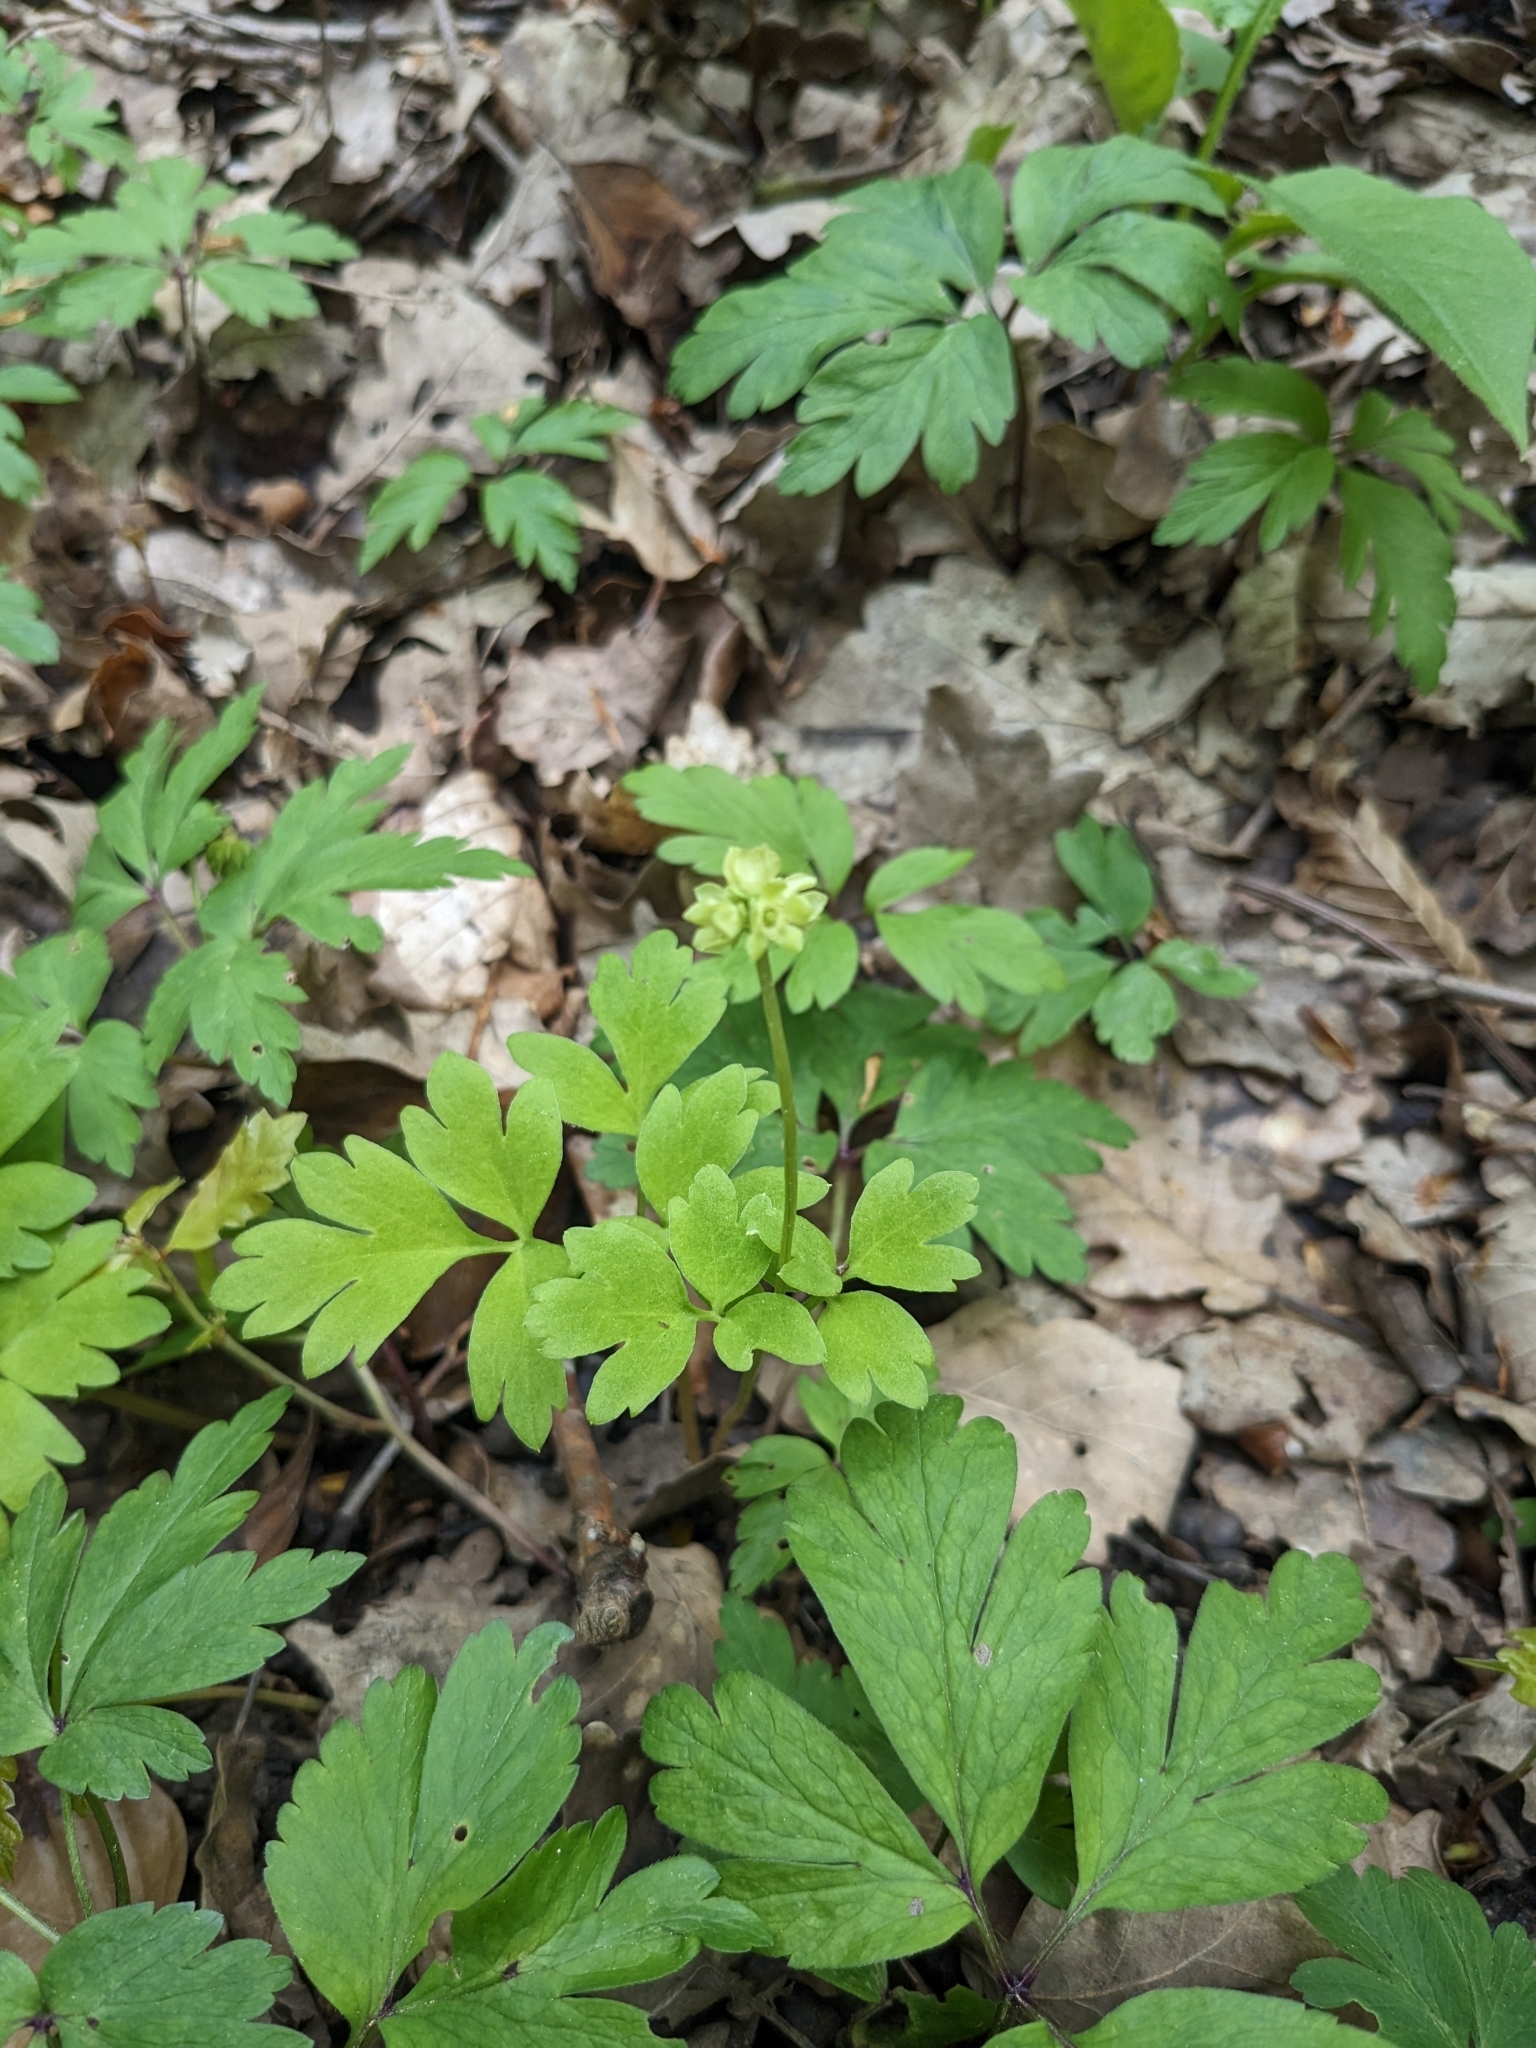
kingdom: Plantae
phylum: Tracheophyta
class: Magnoliopsida
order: Dipsacales
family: Viburnaceae
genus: Adoxa
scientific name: Adoxa moschatellina
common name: Moschatel
